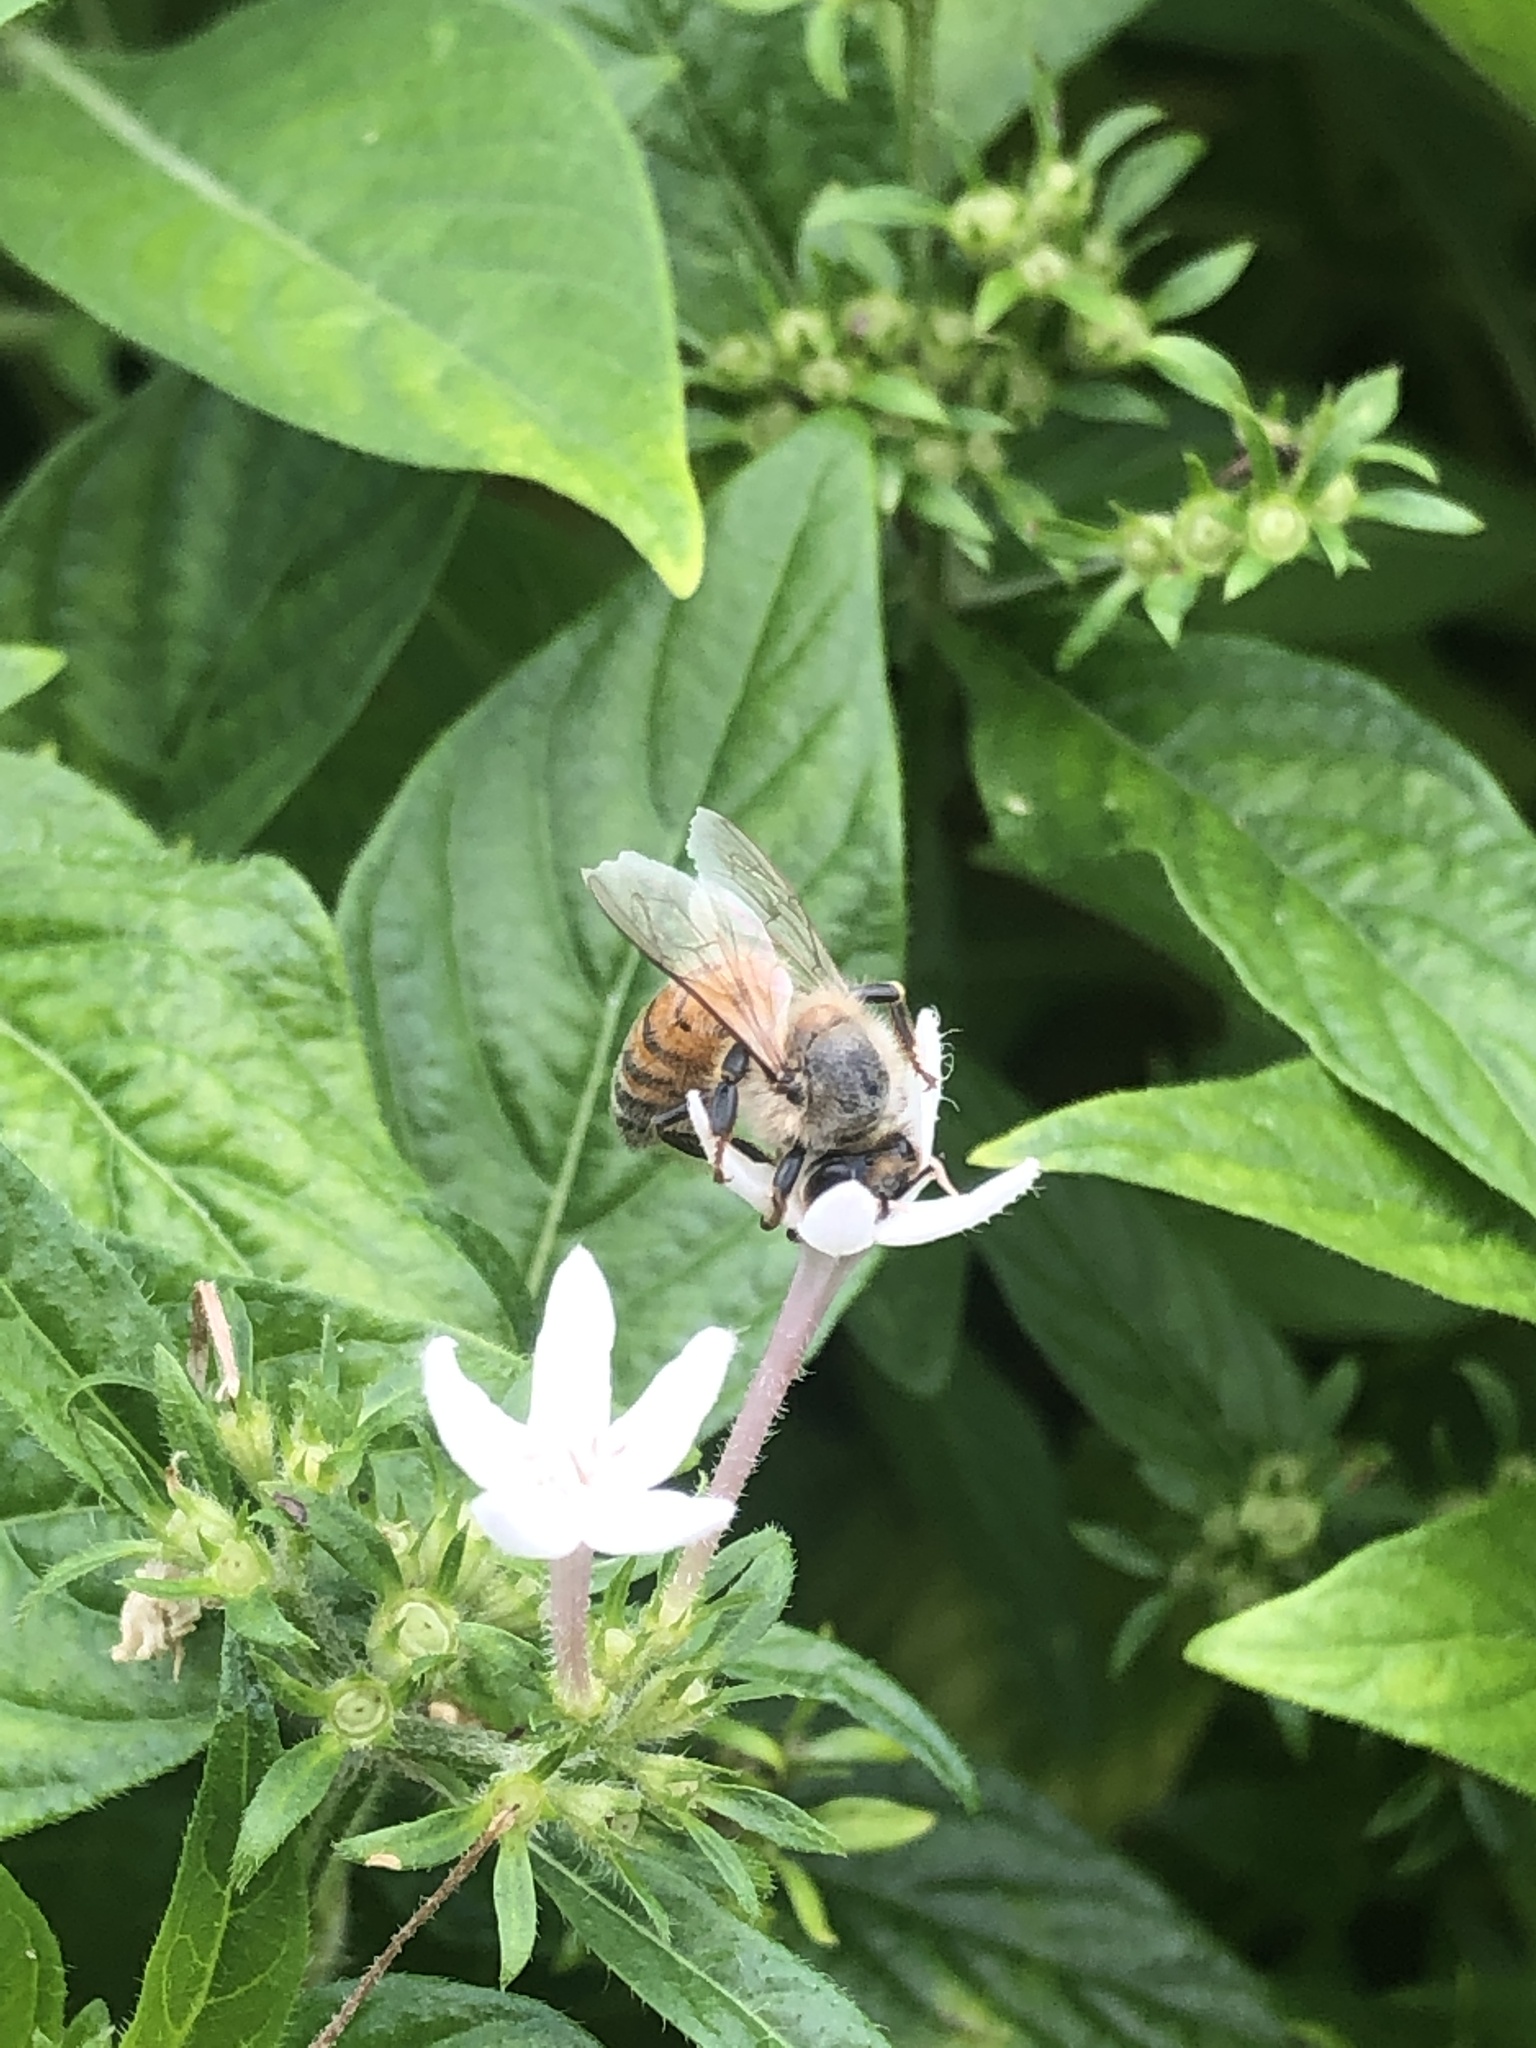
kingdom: Animalia
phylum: Arthropoda
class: Insecta
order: Hymenoptera
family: Apidae
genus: Apis
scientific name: Apis mellifera
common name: Honey bee
